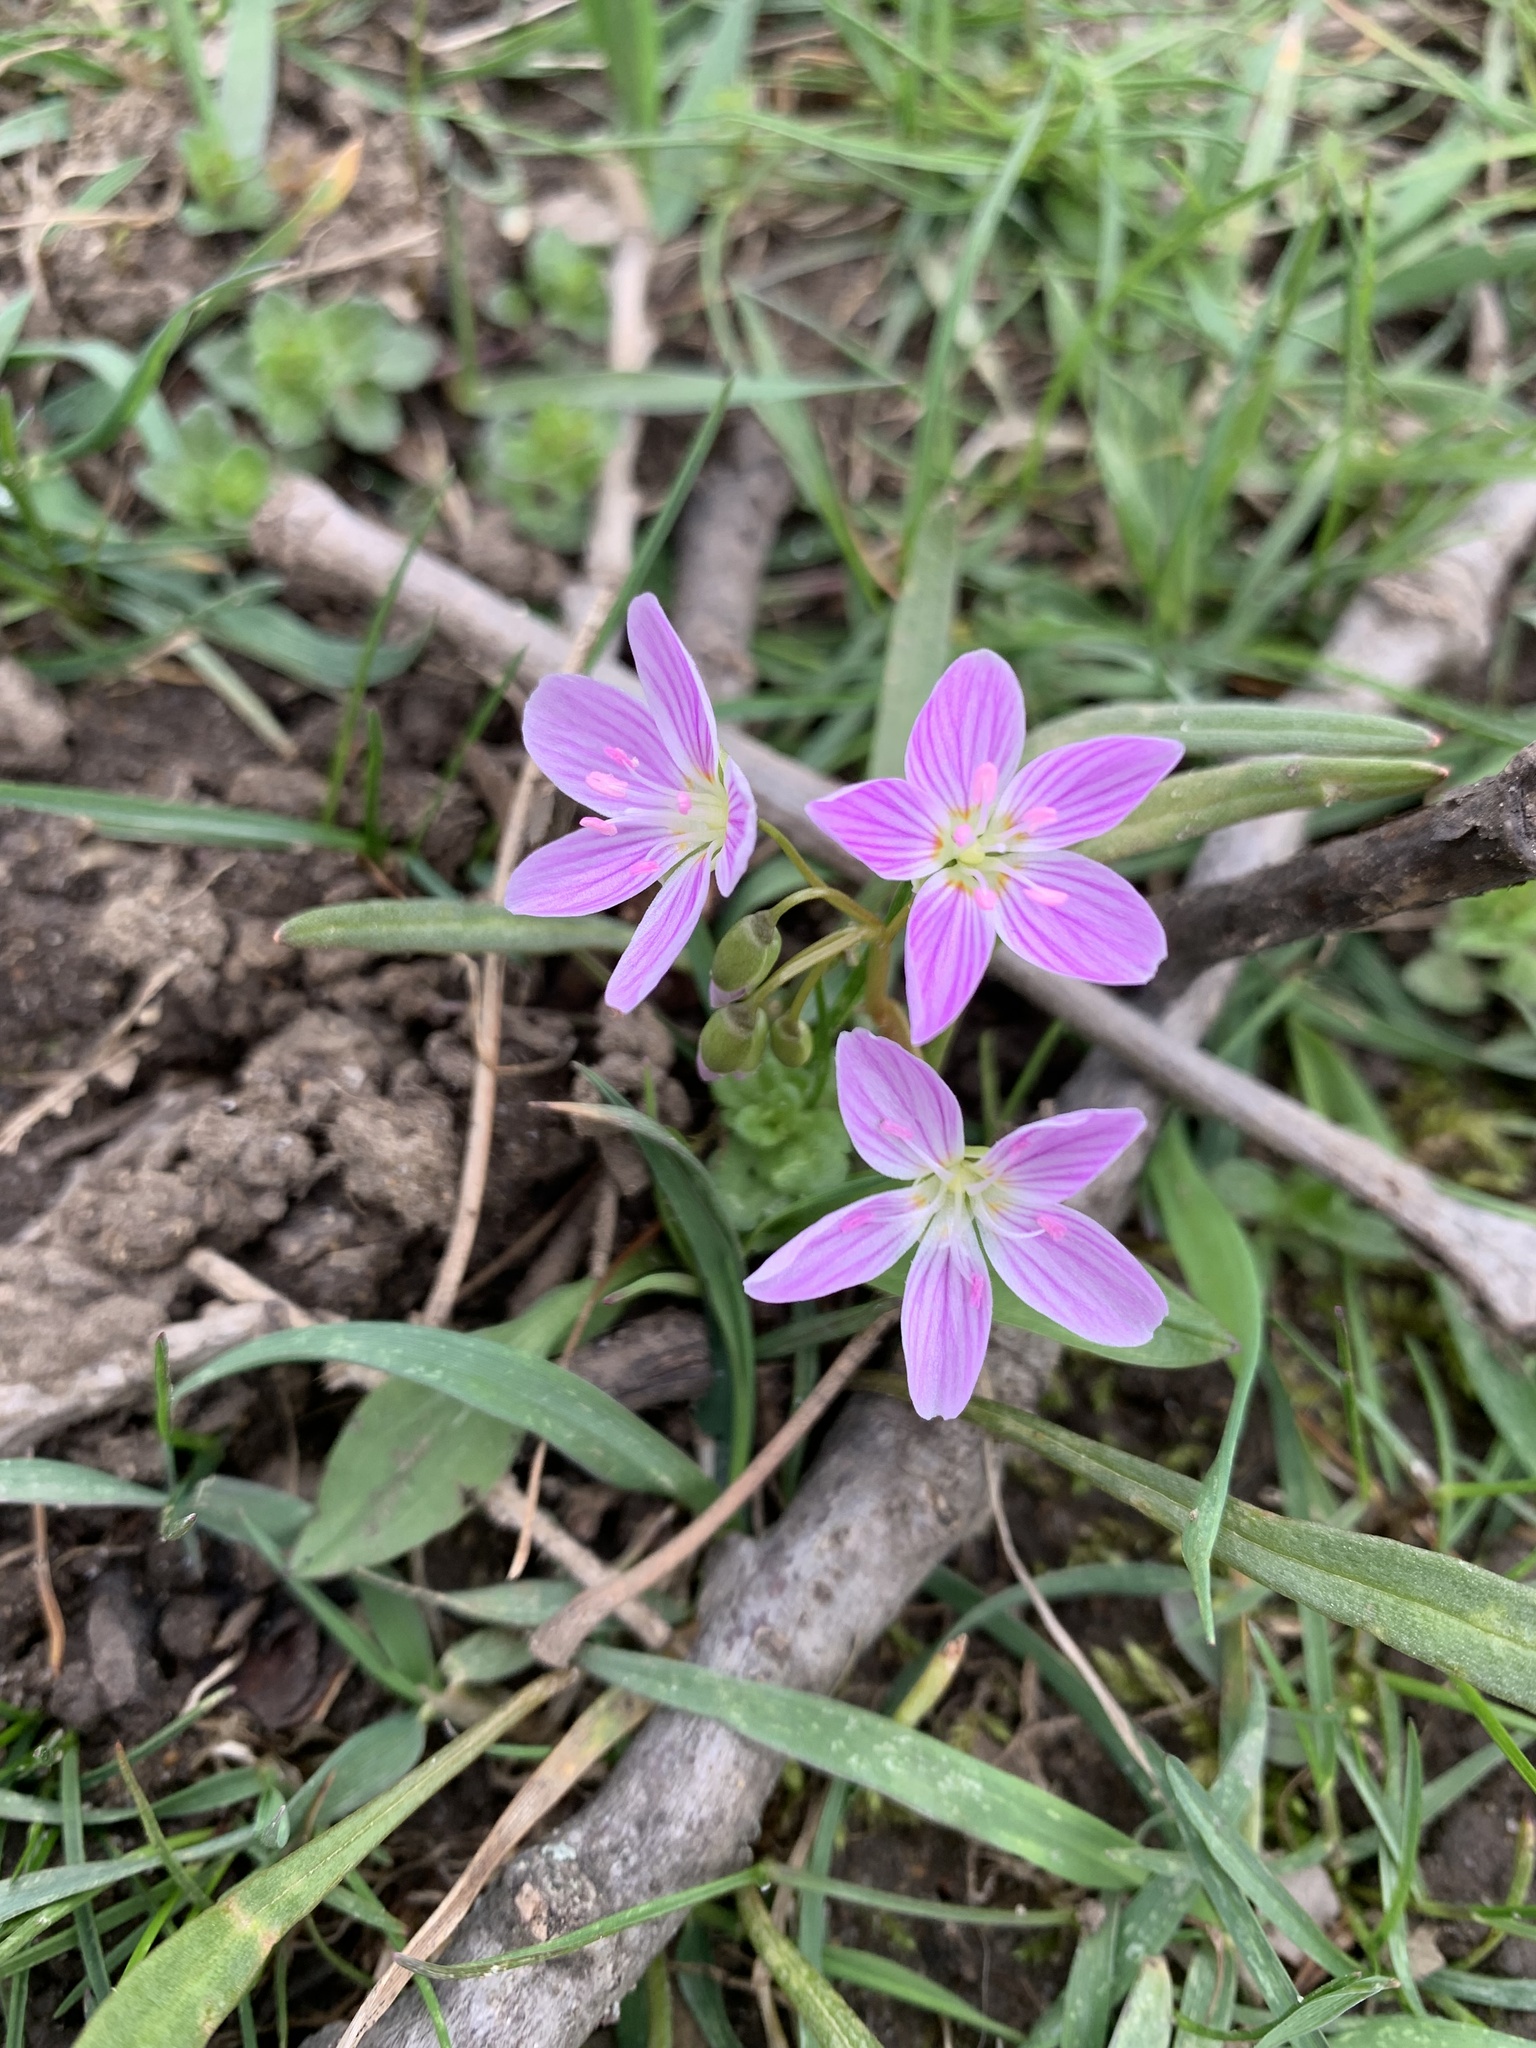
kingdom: Plantae
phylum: Tracheophyta
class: Magnoliopsida
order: Caryophyllales
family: Montiaceae
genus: Claytonia
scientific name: Claytonia virginica
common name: Virginia springbeauty
